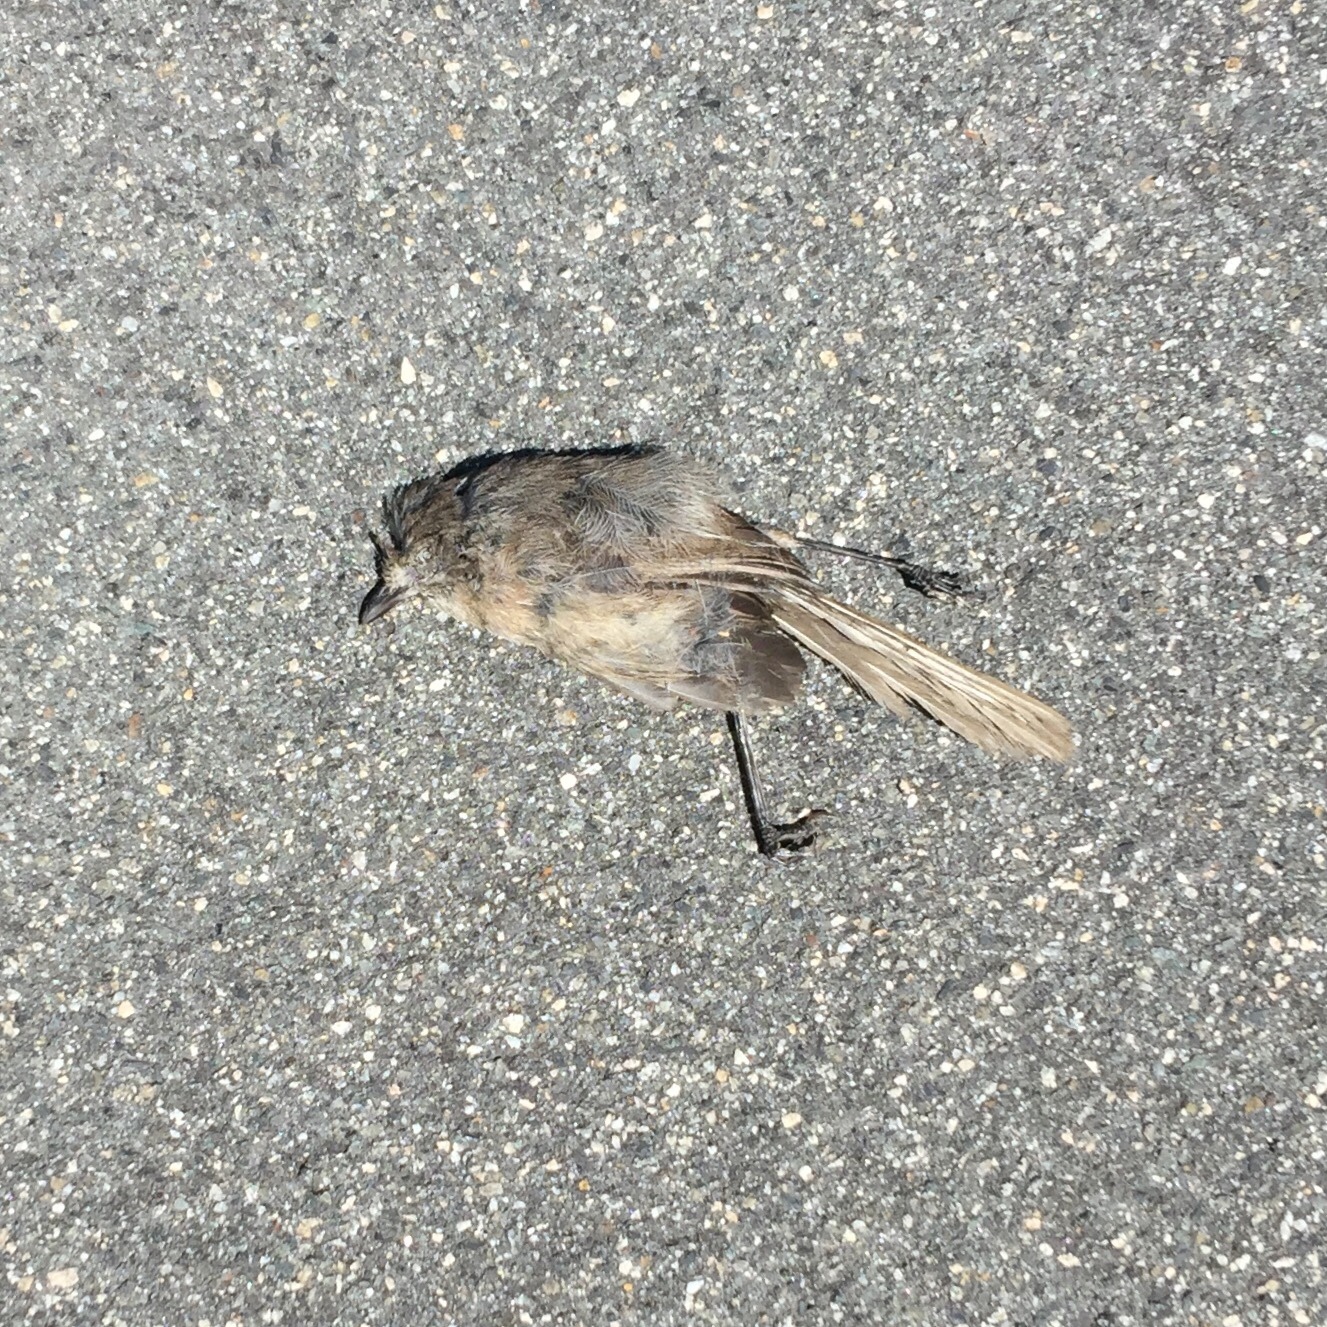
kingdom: Animalia
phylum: Chordata
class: Aves
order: Passeriformes
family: Sylviidae
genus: Chamaea
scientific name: Chamaea fasciata
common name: Wrentit
